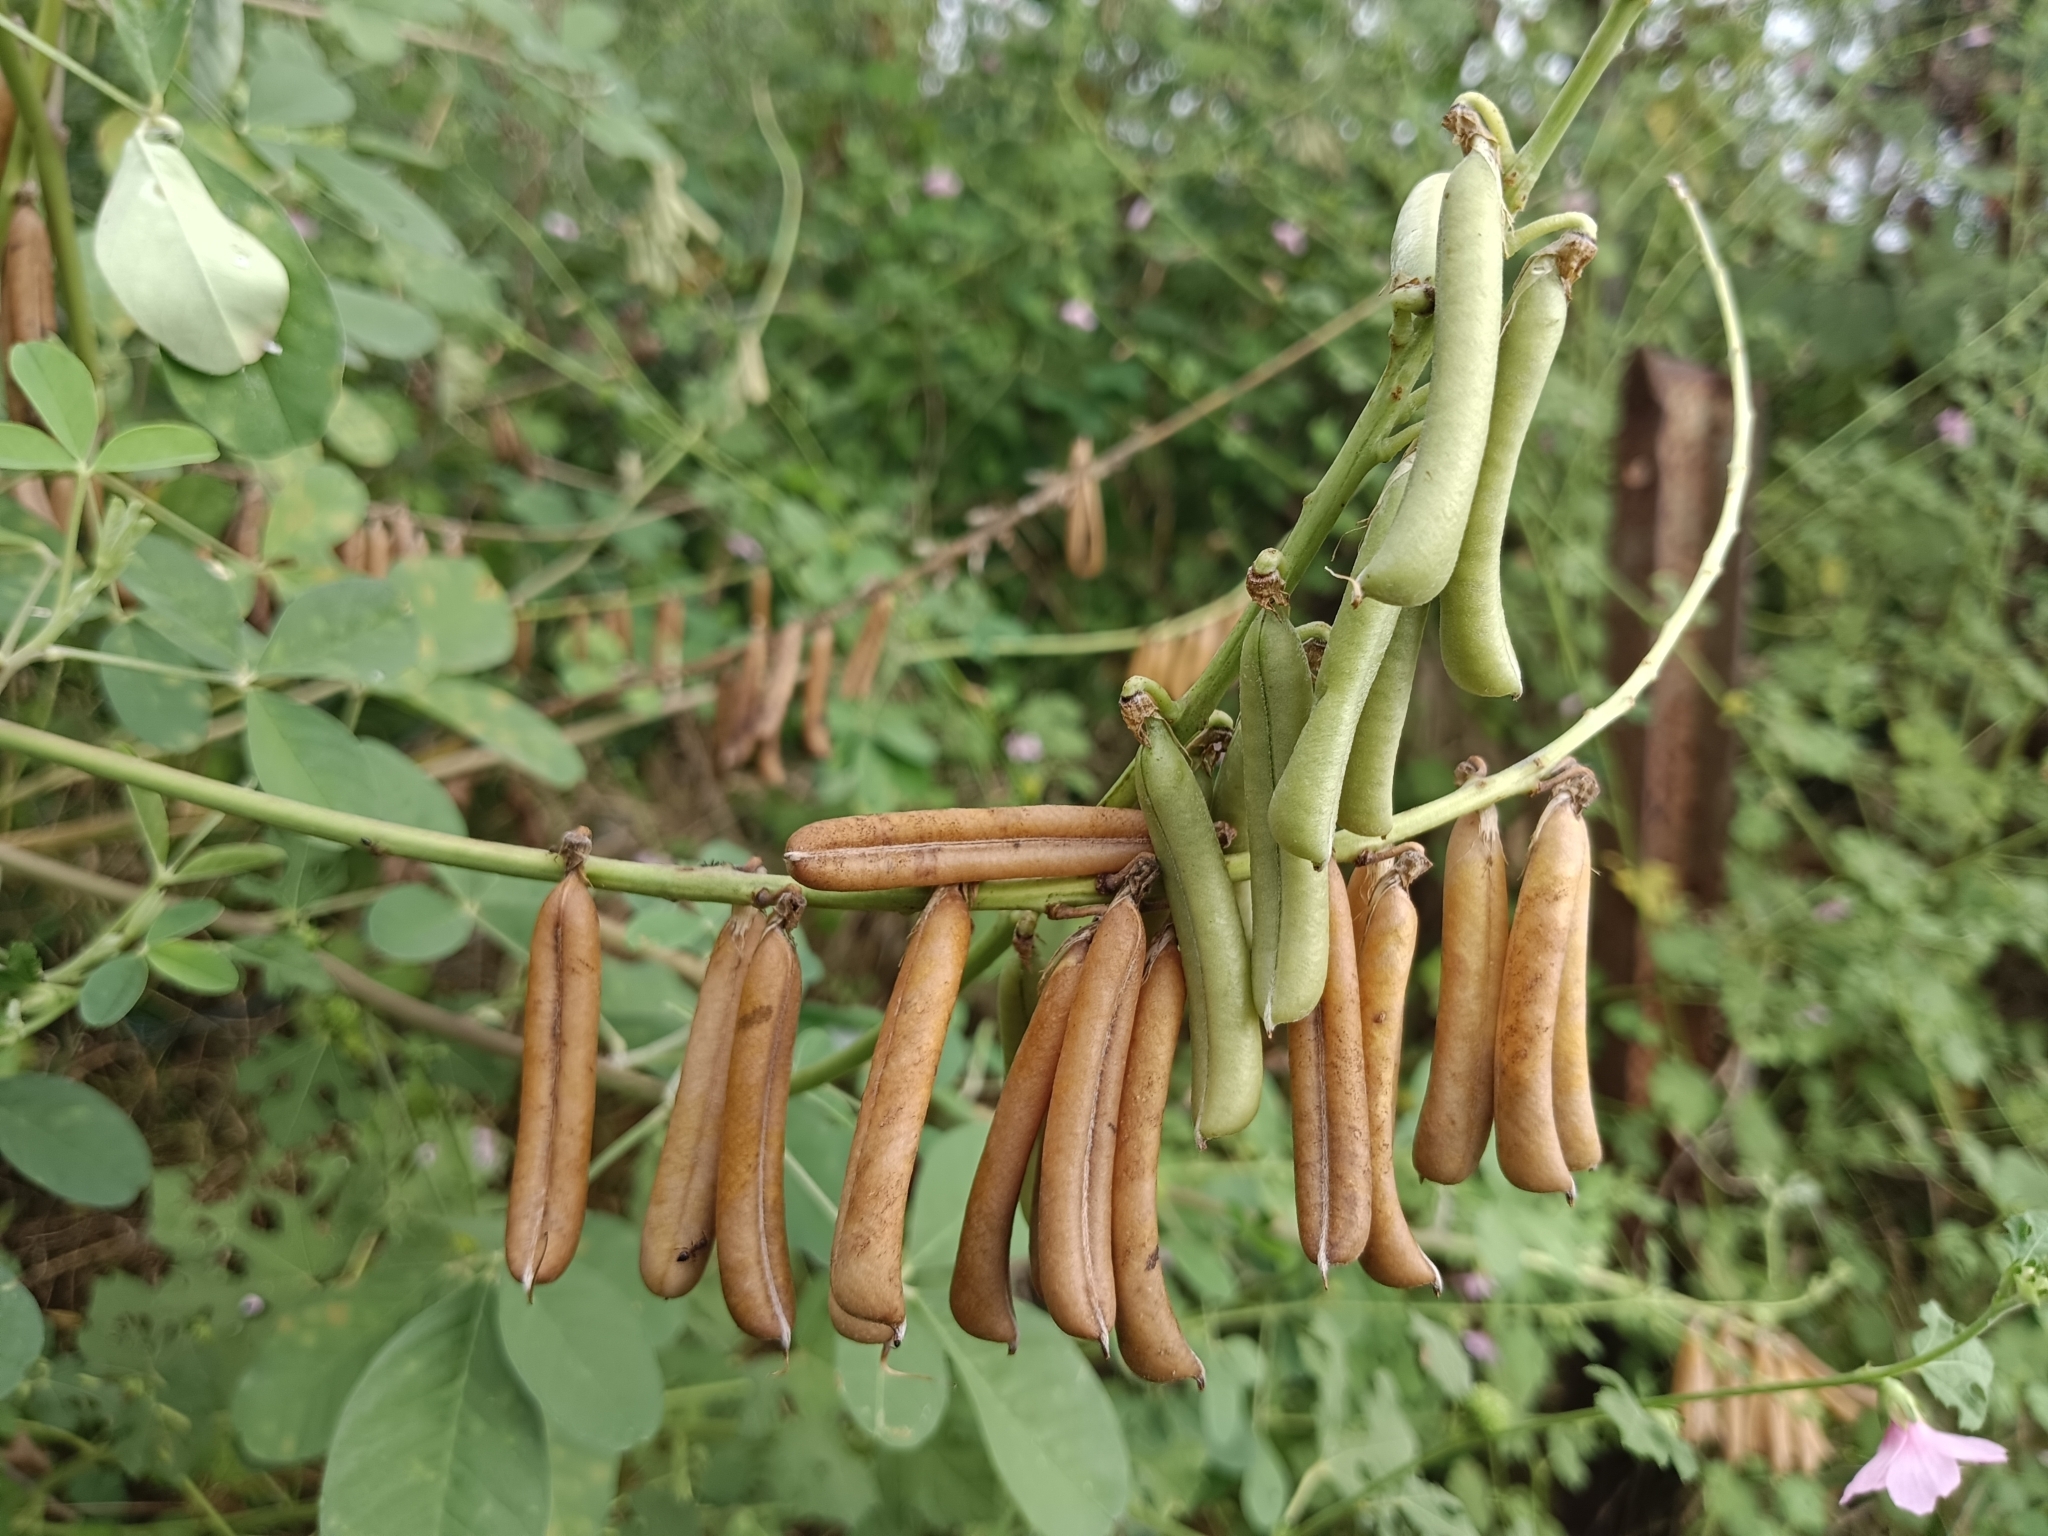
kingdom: Plantae
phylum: Tracheophyta
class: Magnoliopsida
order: Fabales
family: Fabaceae
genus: Crotalaria
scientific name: Crotalaria pallida
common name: Smooth rattlebox
